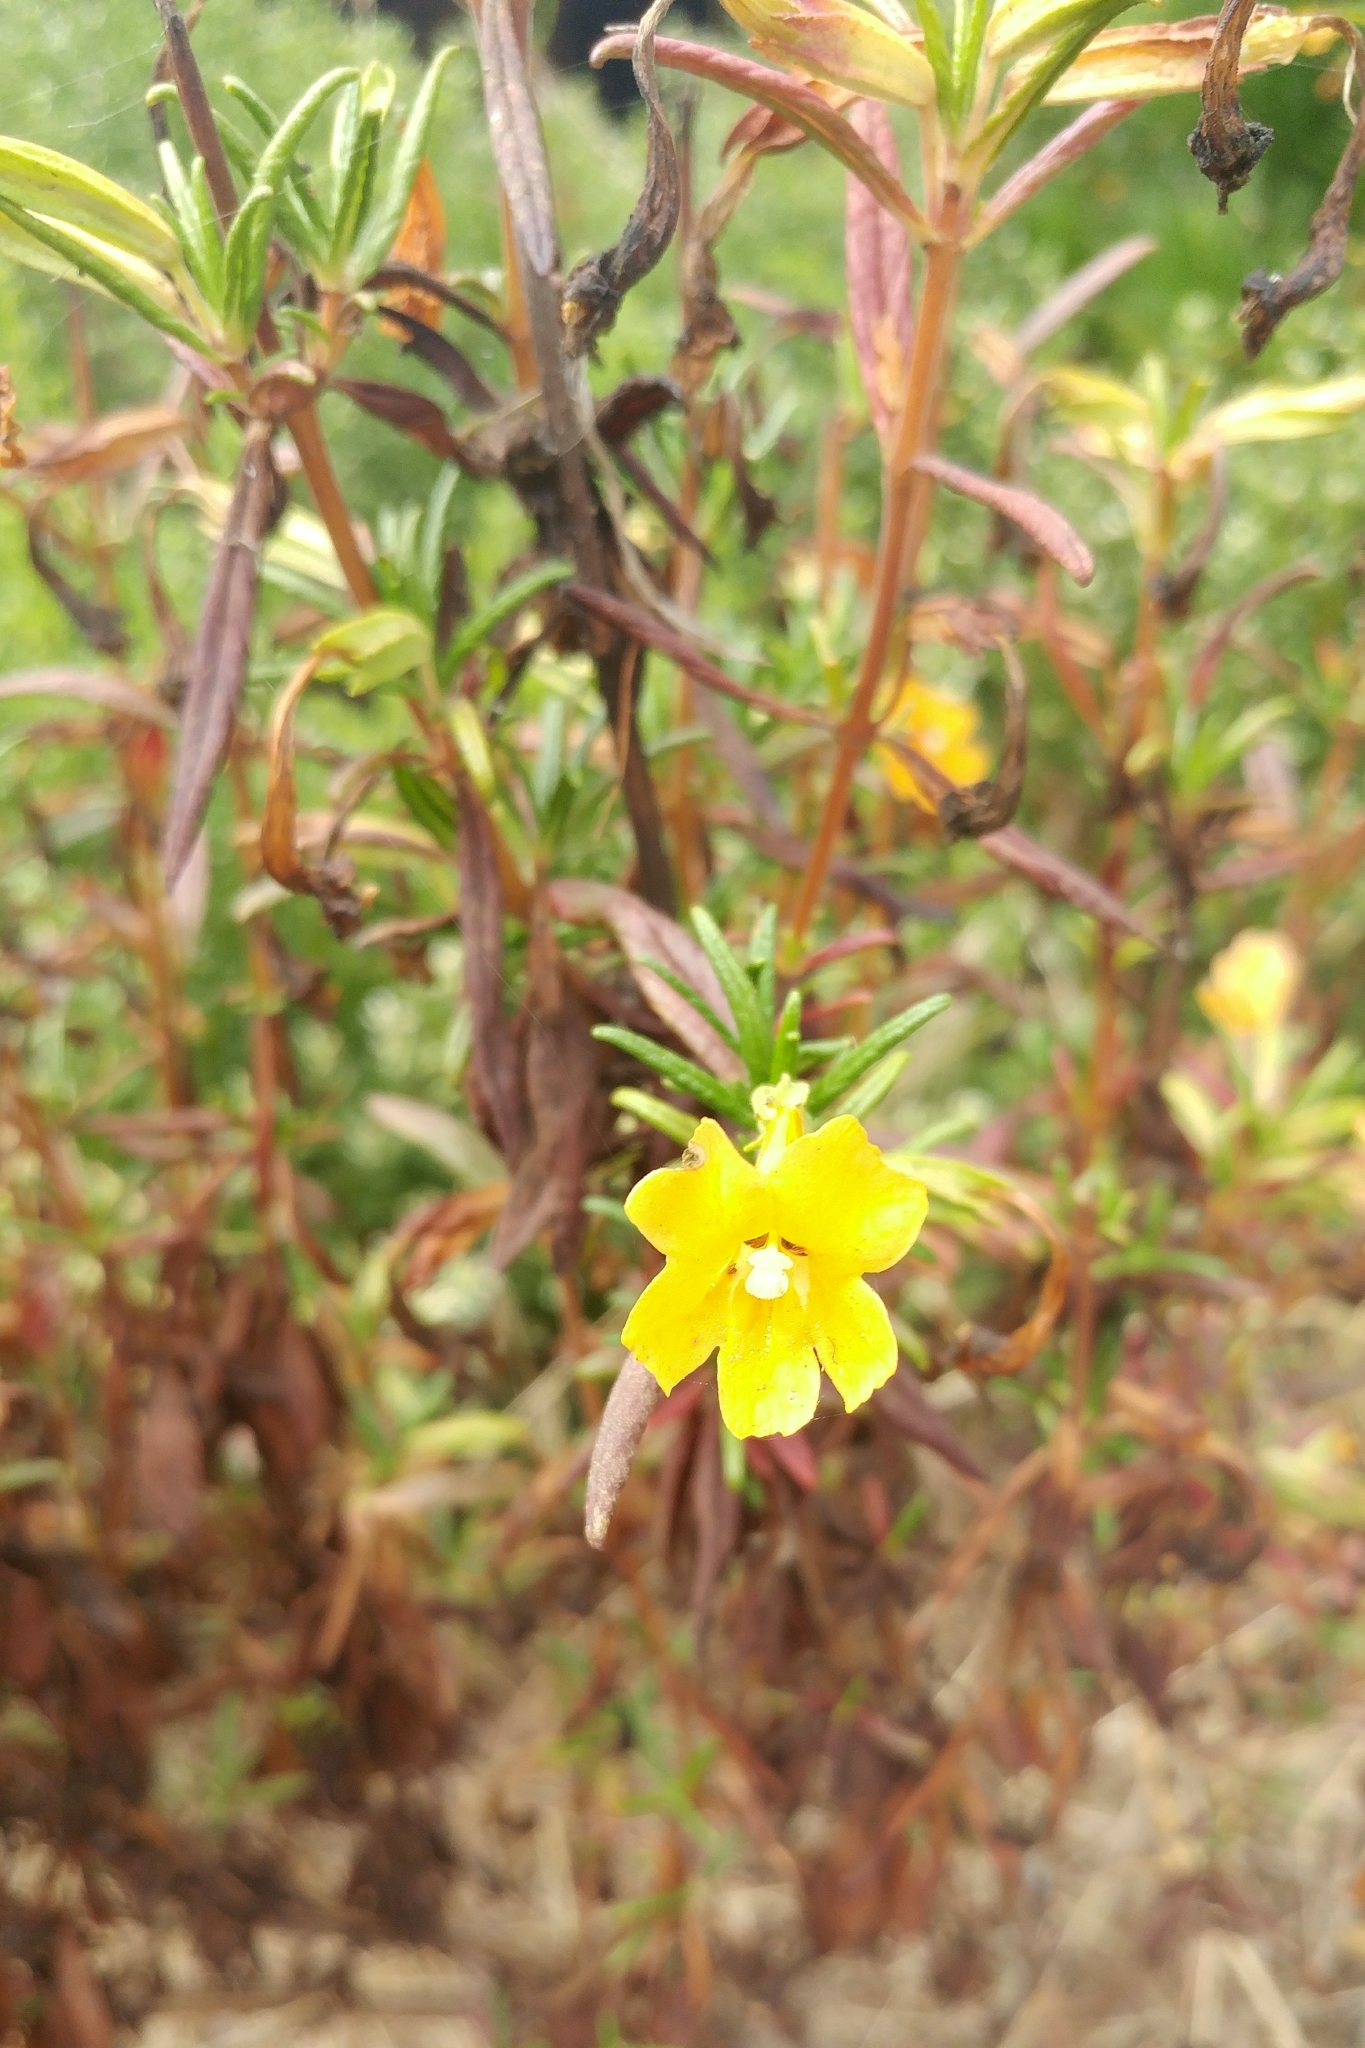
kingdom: Plantae
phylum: Tracheophyta
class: Magnoliopsida
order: Lamiales
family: Phrymaceae
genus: Diplacus
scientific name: Diplacus aurantiacus
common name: Bush monkey-flower
